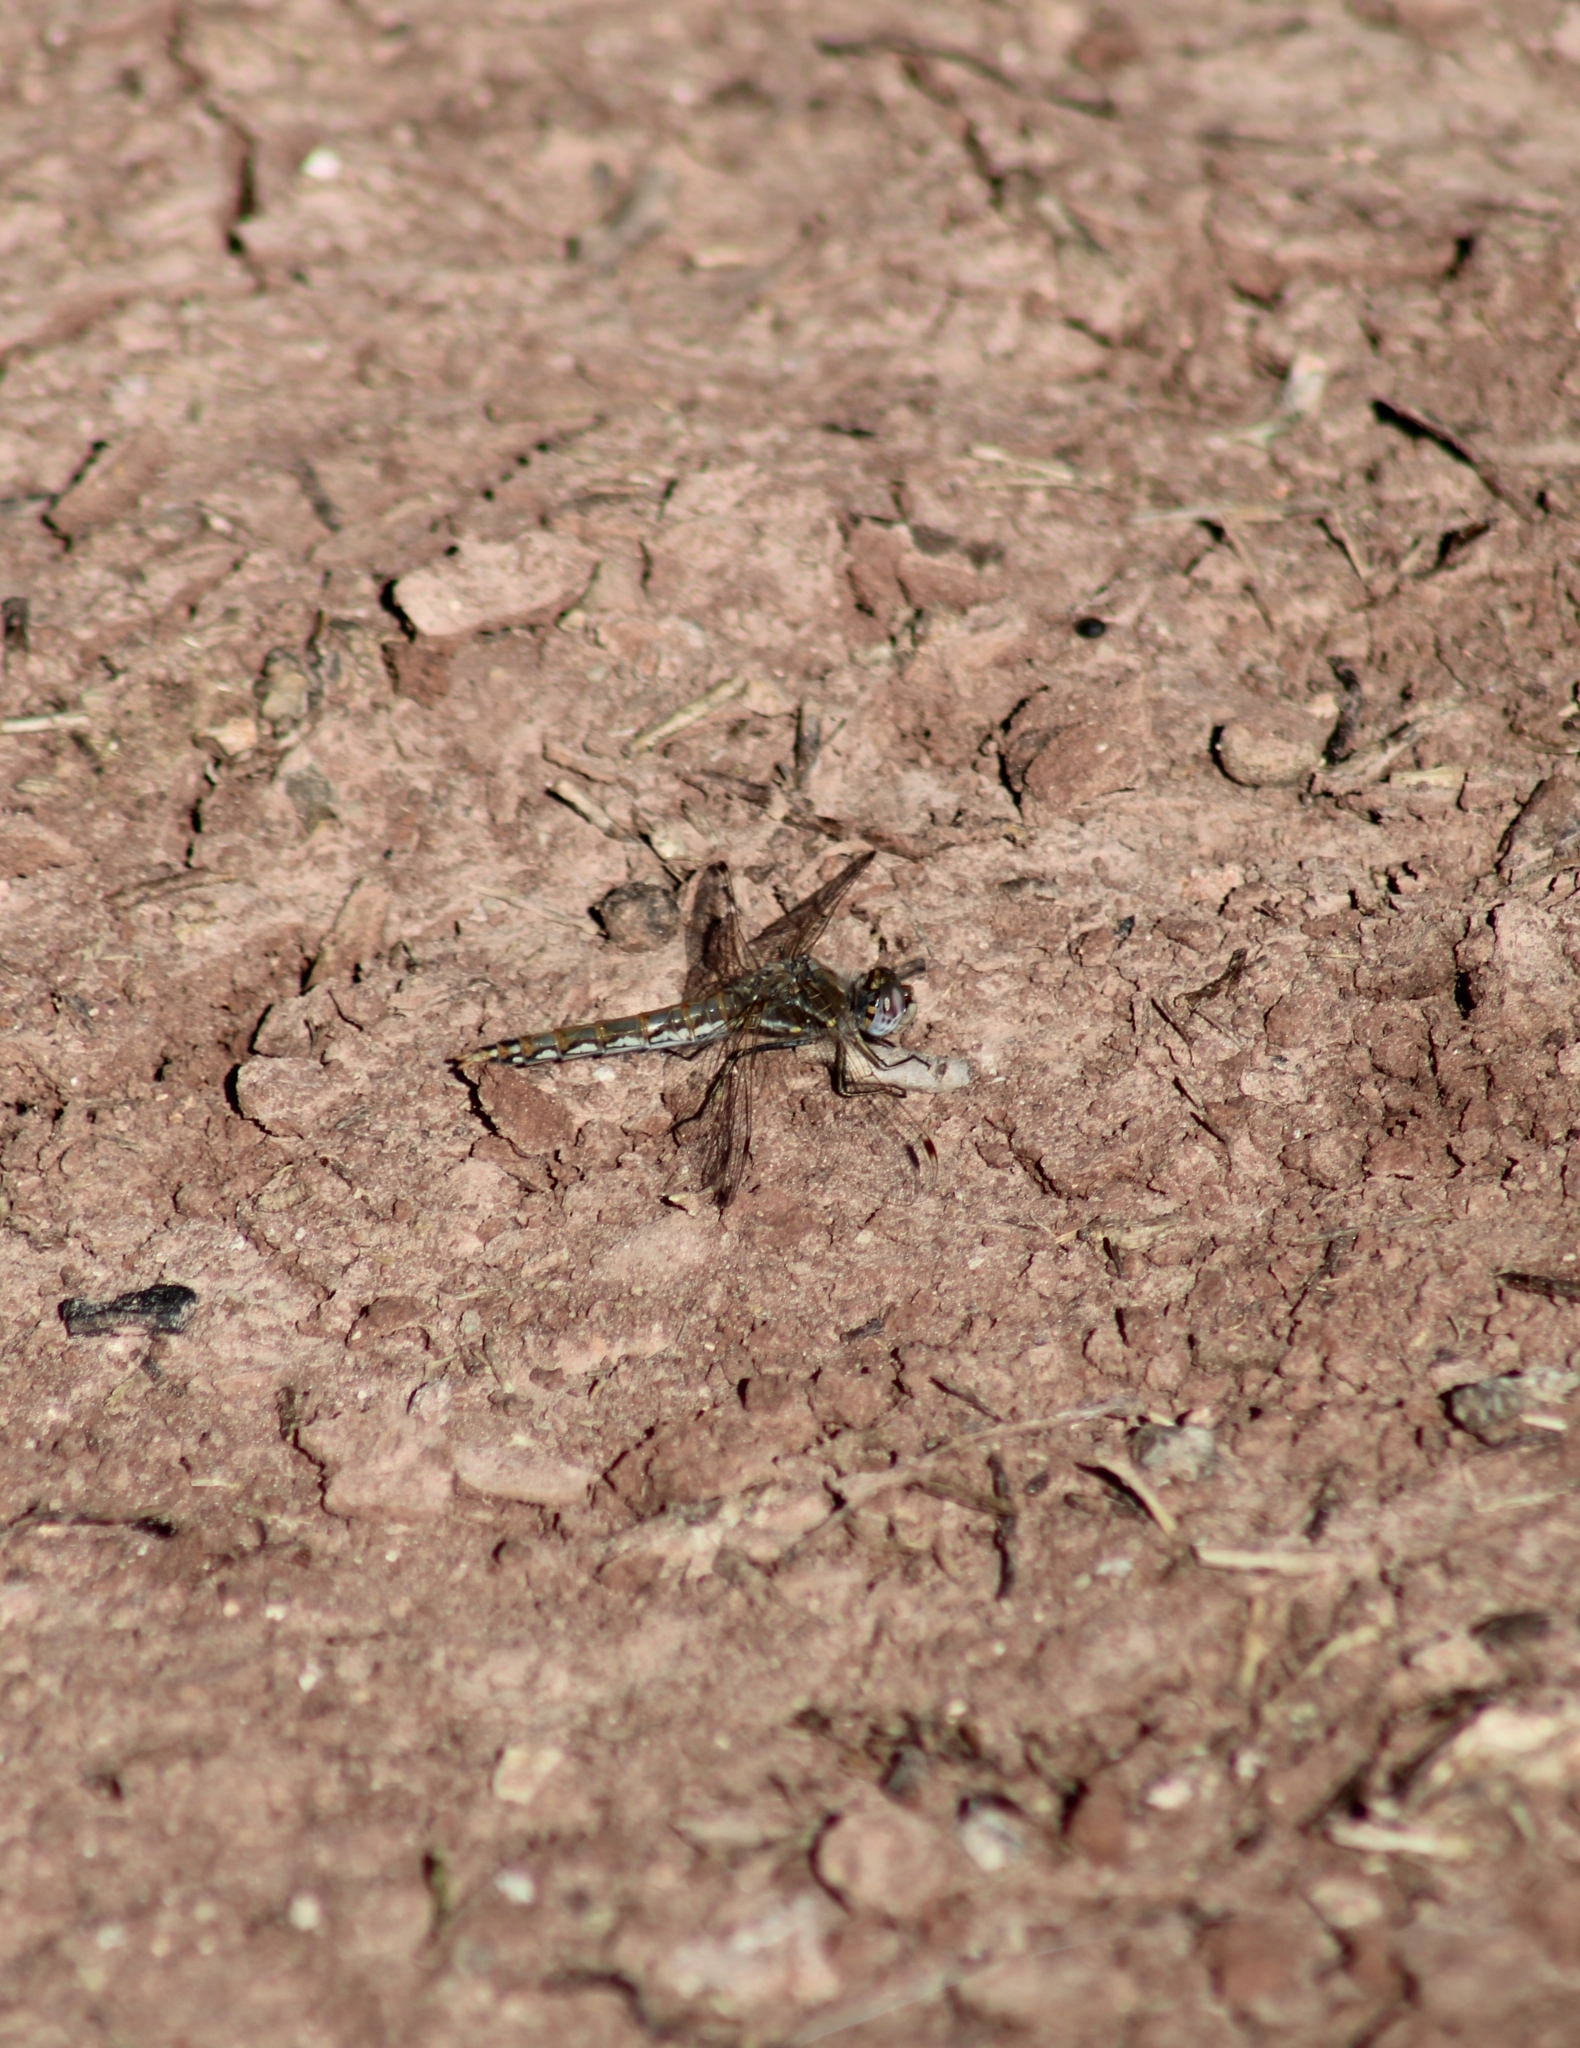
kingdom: Animalia
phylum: Arthropoda
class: Insecta
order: Odonata
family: Libellulidae
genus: Sympetrum
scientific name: Sympetrum corruptum
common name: Variegated meadowhawk
